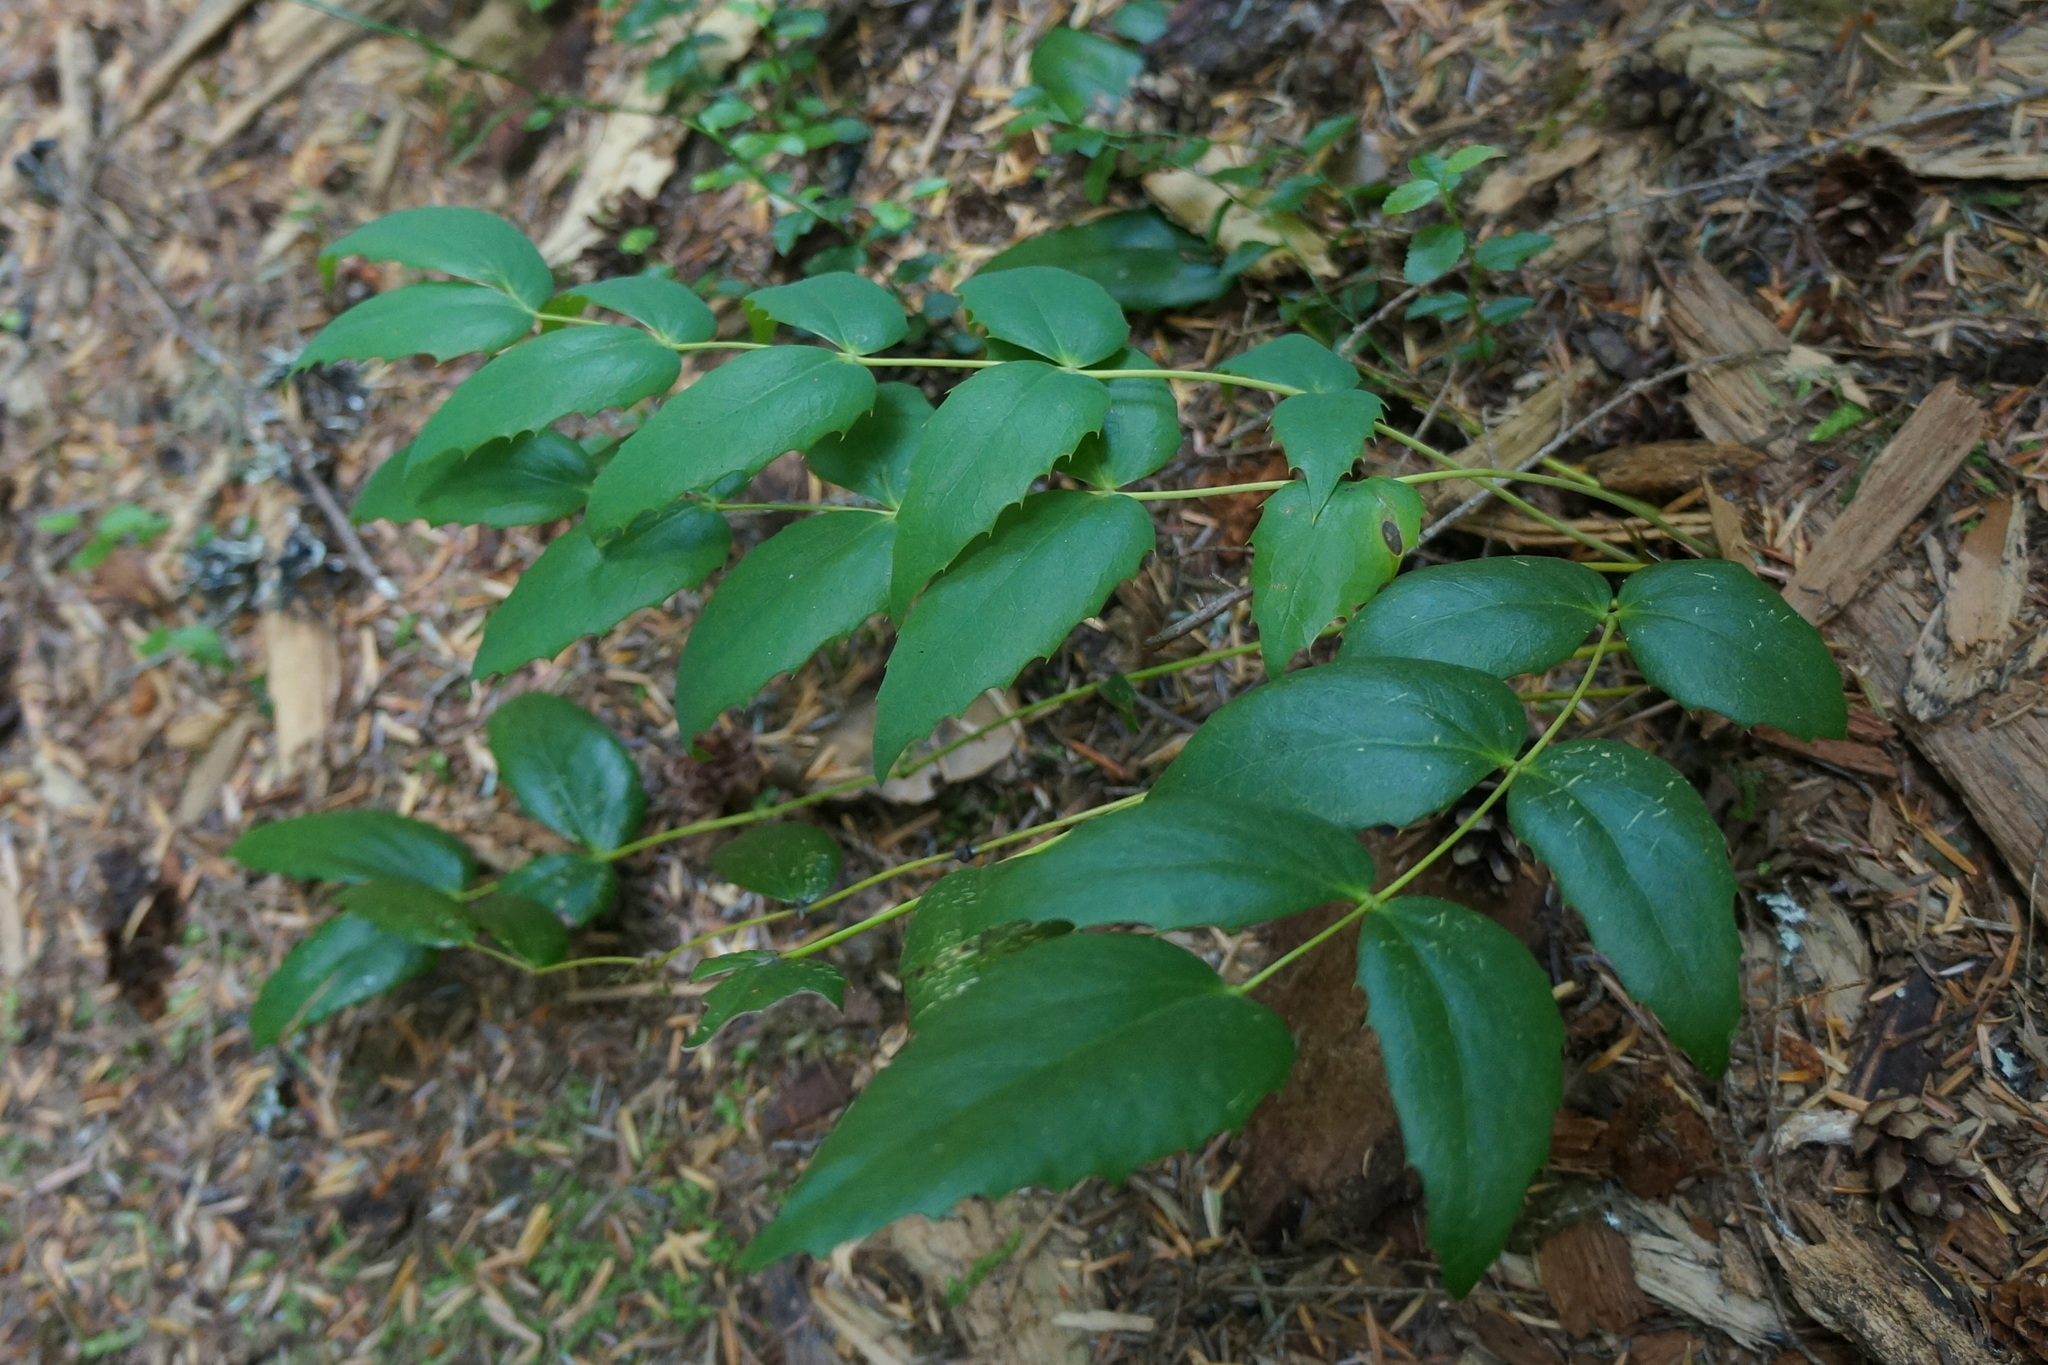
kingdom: Plantae
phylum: Tracheophyta
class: Magnoliopsida
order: Ranunculales
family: Berberidaceae
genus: Mahonia
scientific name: Mahonia nervosa
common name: Cascade oregon-grape
